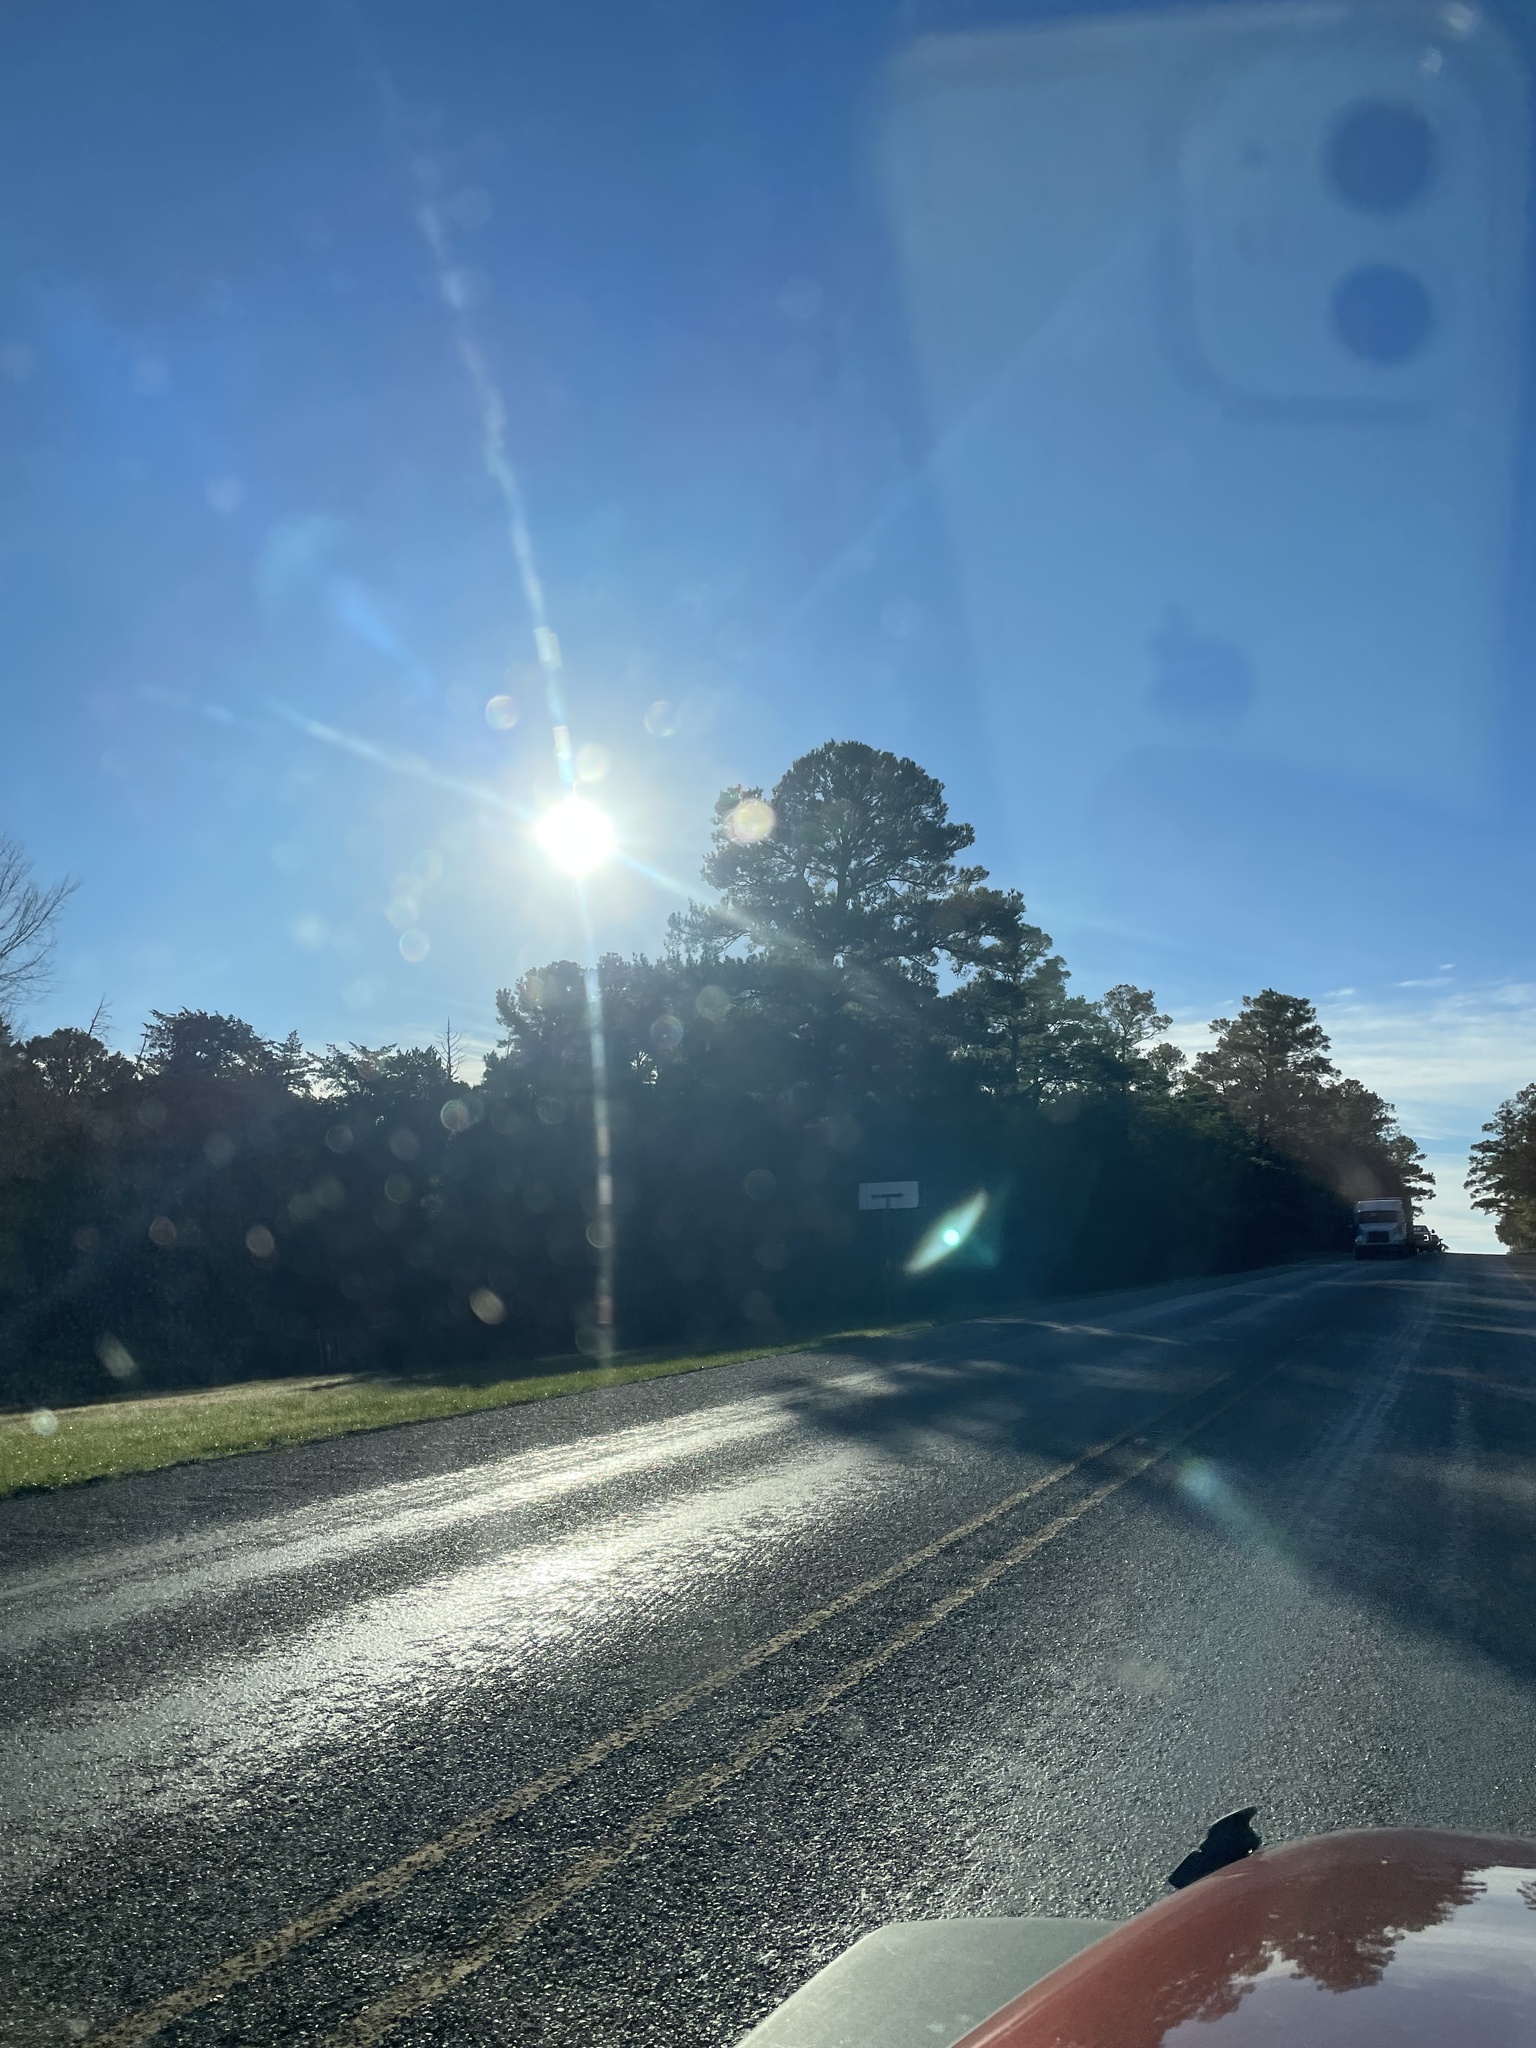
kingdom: Plantae
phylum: Tracheophyta
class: Pinopsida
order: Pinales
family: Pinaceae
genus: Pinus
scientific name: Pinus taeda
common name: Loblolly pine
